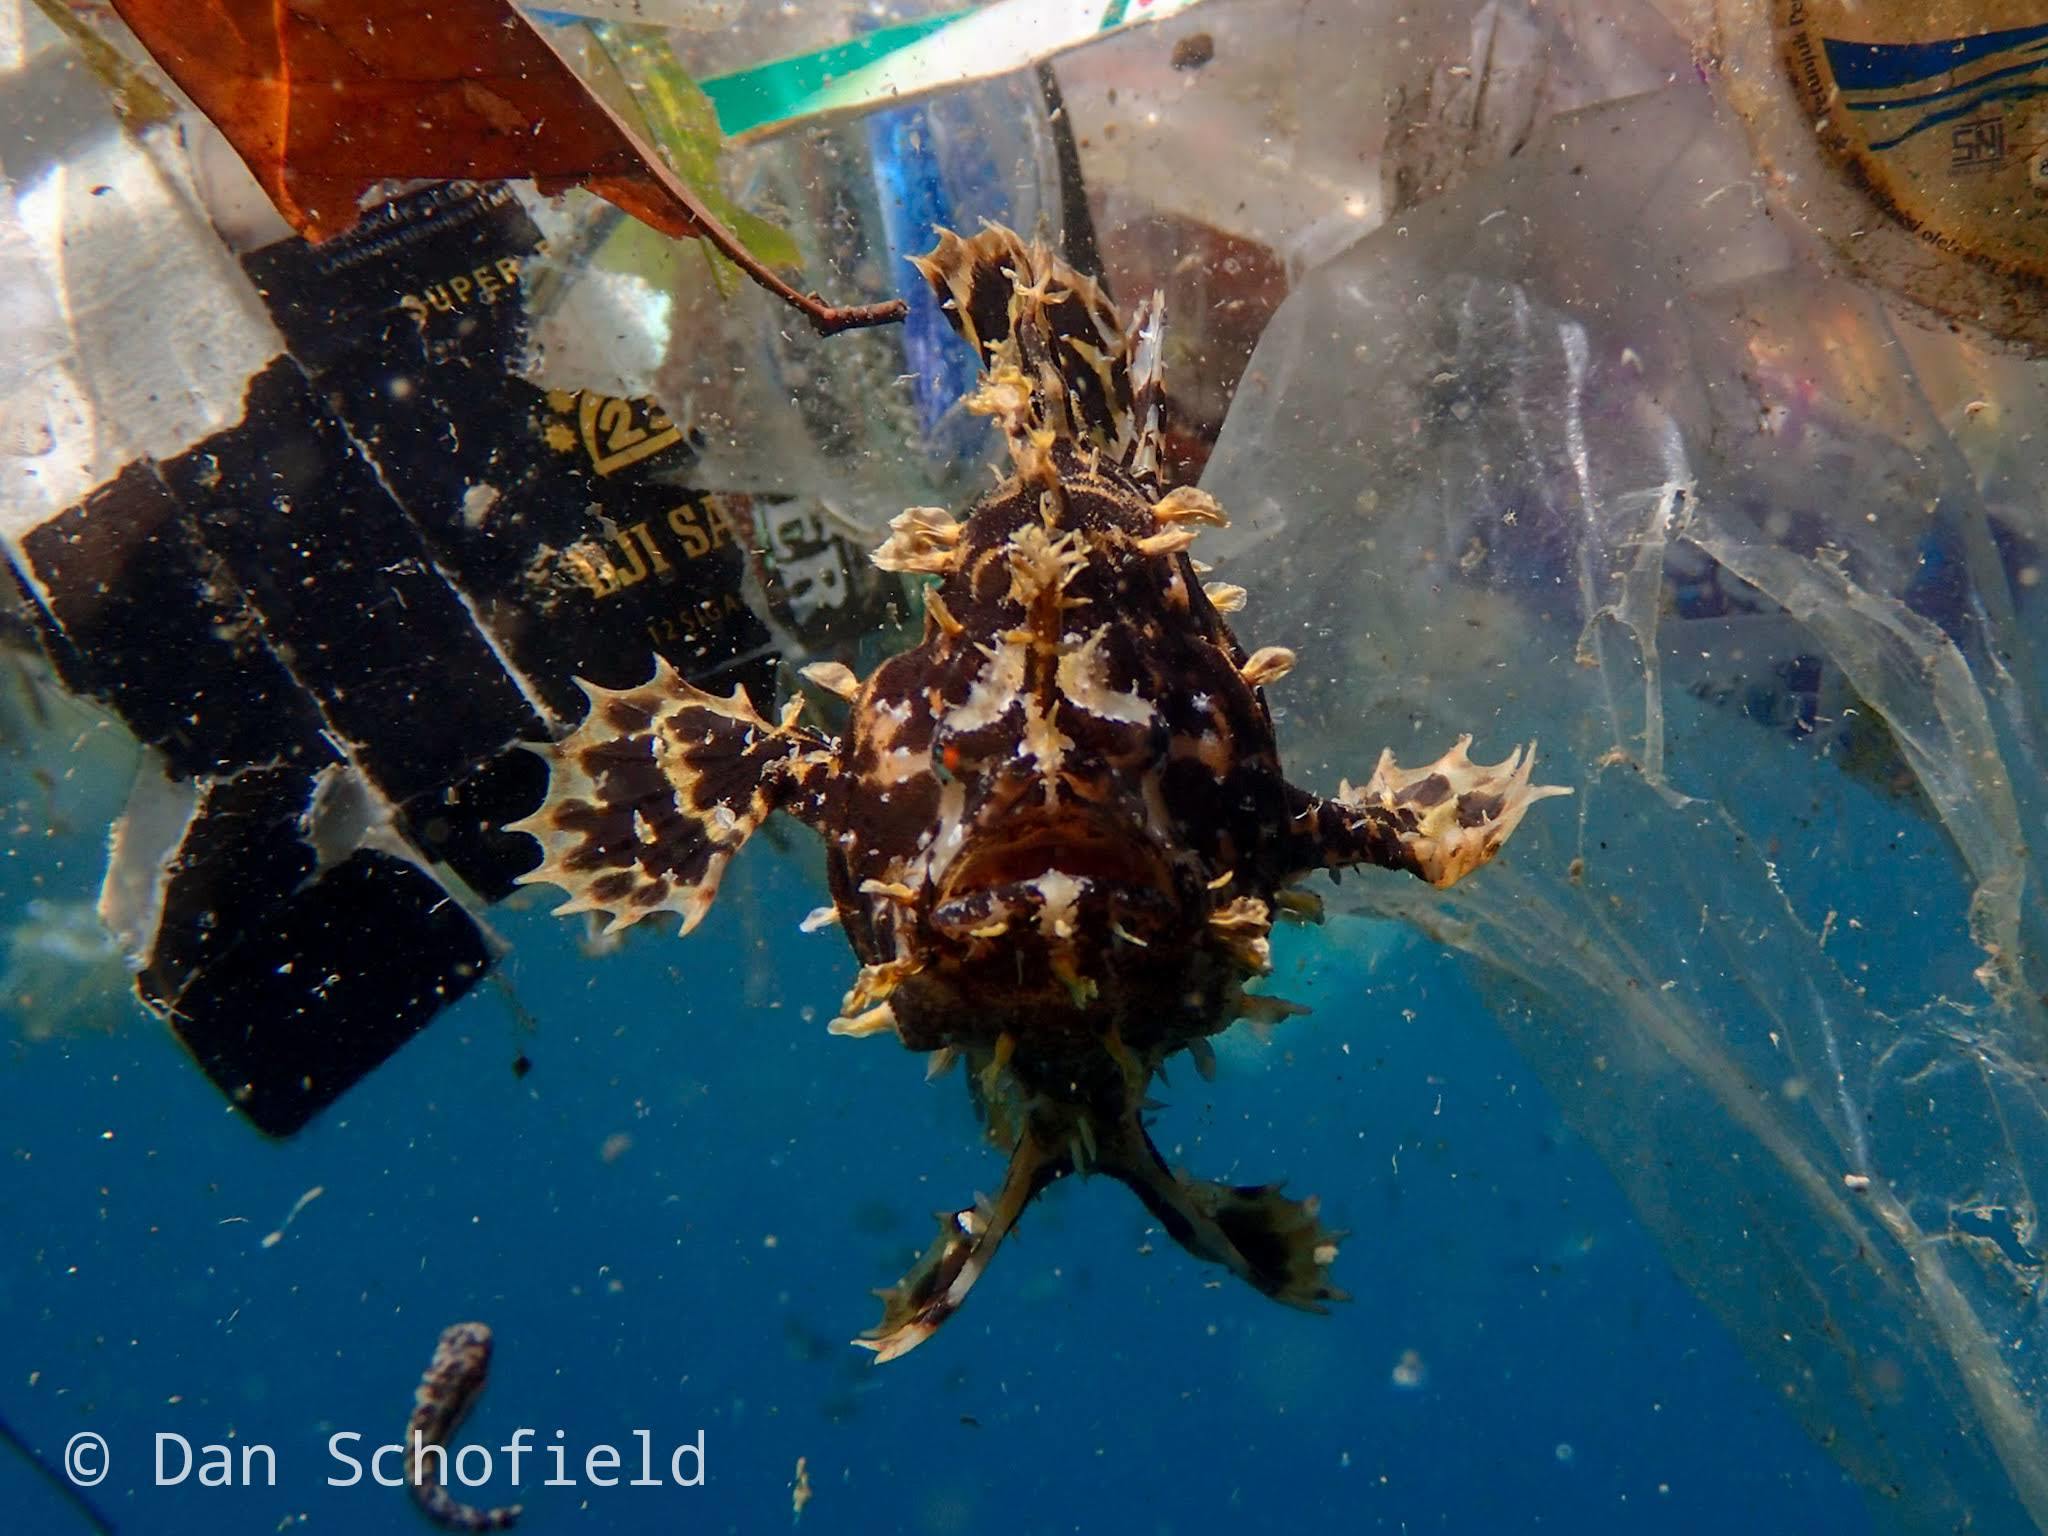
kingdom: Animalia
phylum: Chordata
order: Lophiiformes
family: Antennariidae
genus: Histrio
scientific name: Histrio histrio
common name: Sargassumfish
